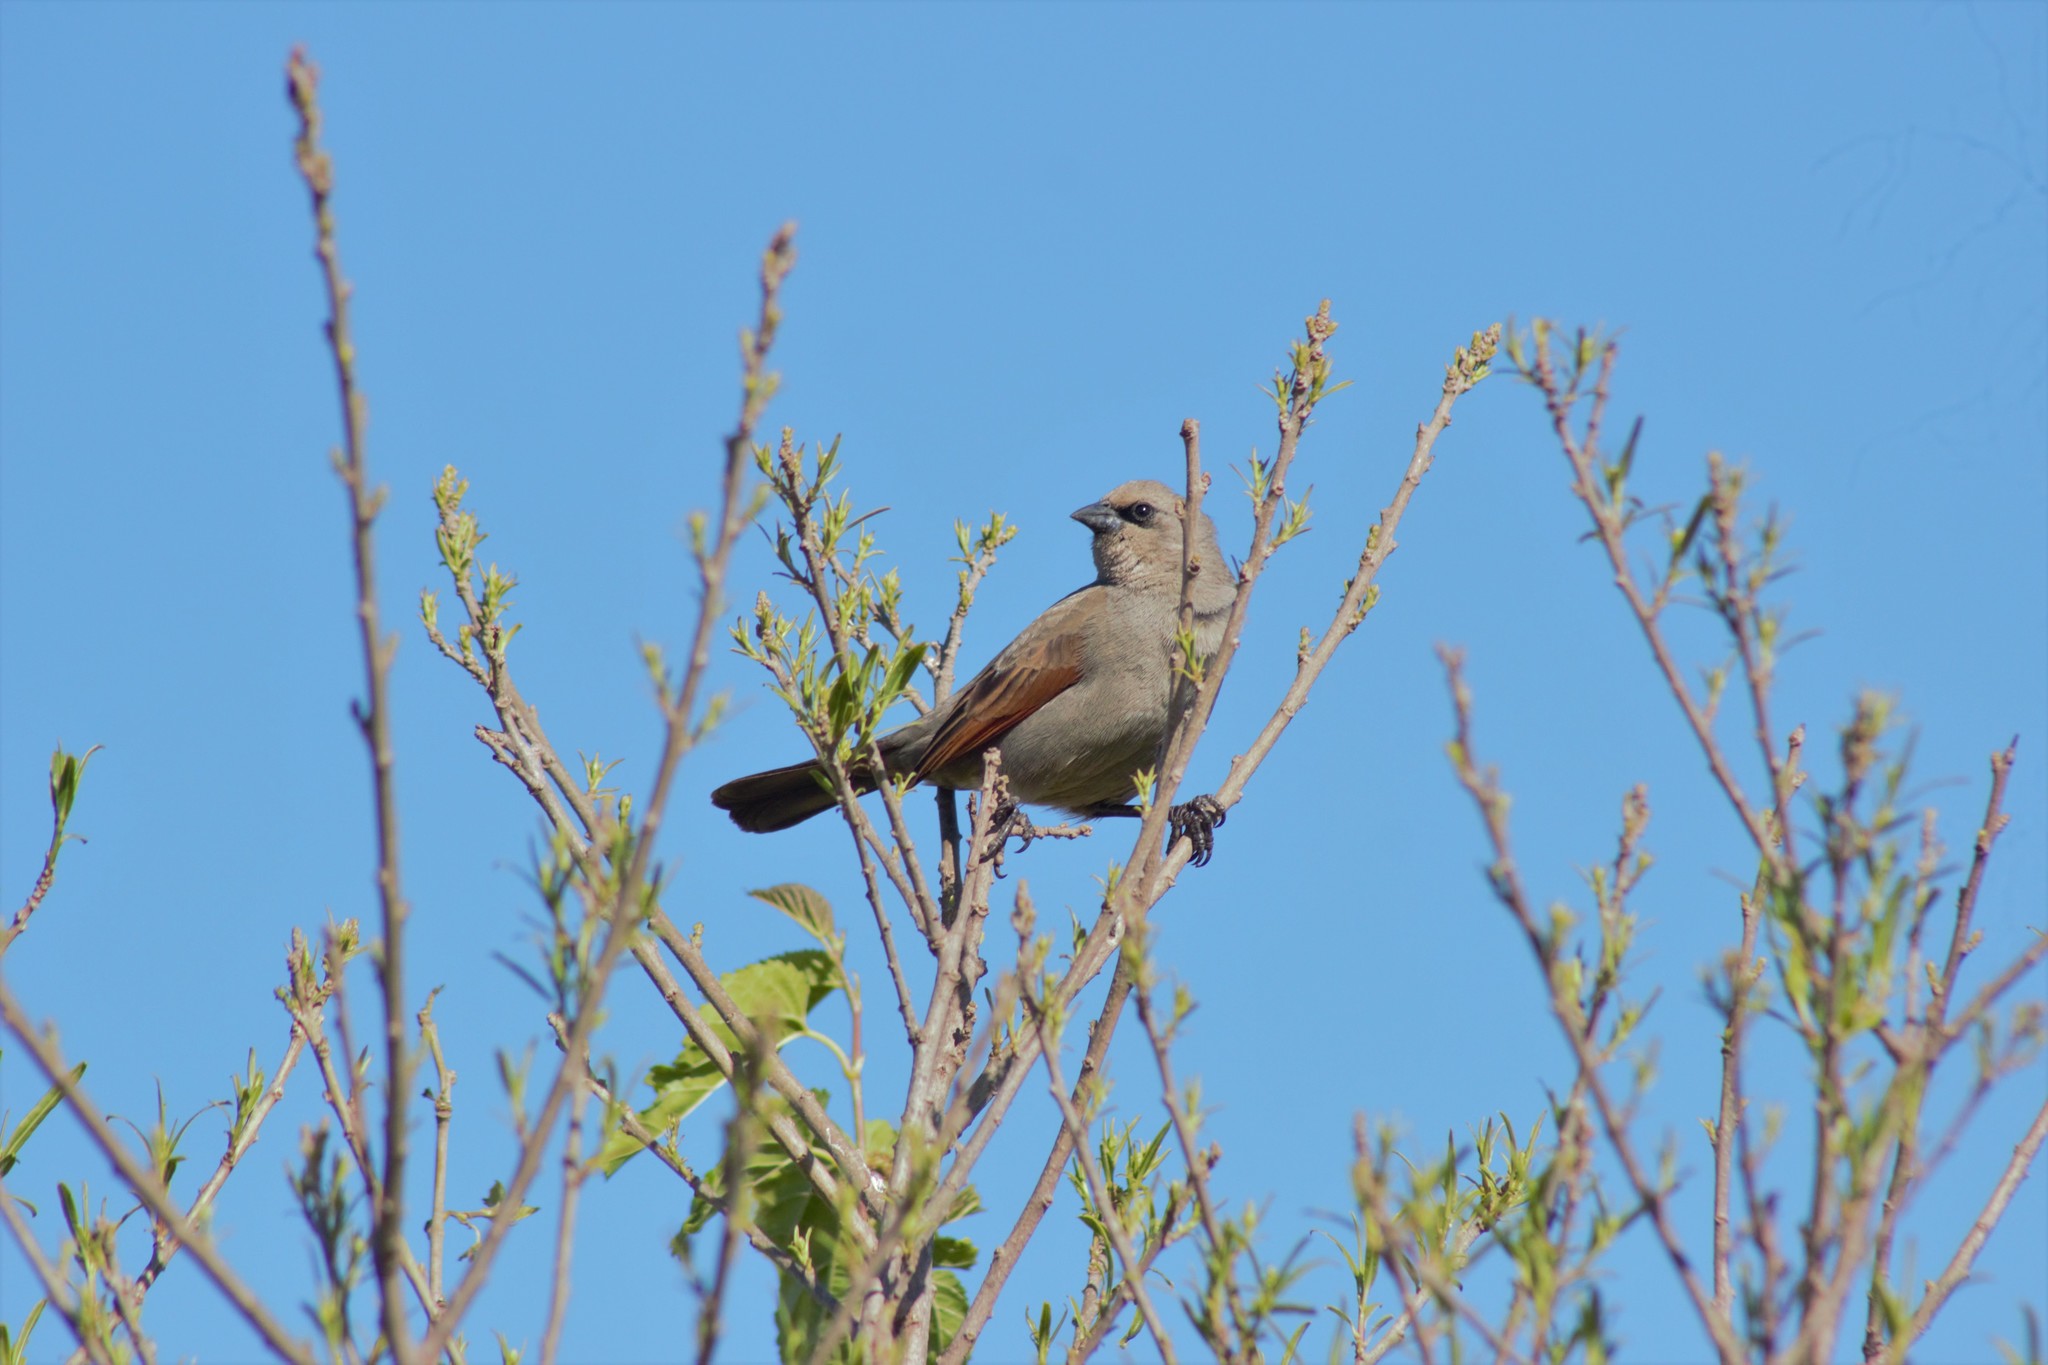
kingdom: Animalia
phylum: Chordata
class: Aves
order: Passeriformes
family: Icteridae
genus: Agelaioides
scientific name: Agelaioides badius
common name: Baywing
